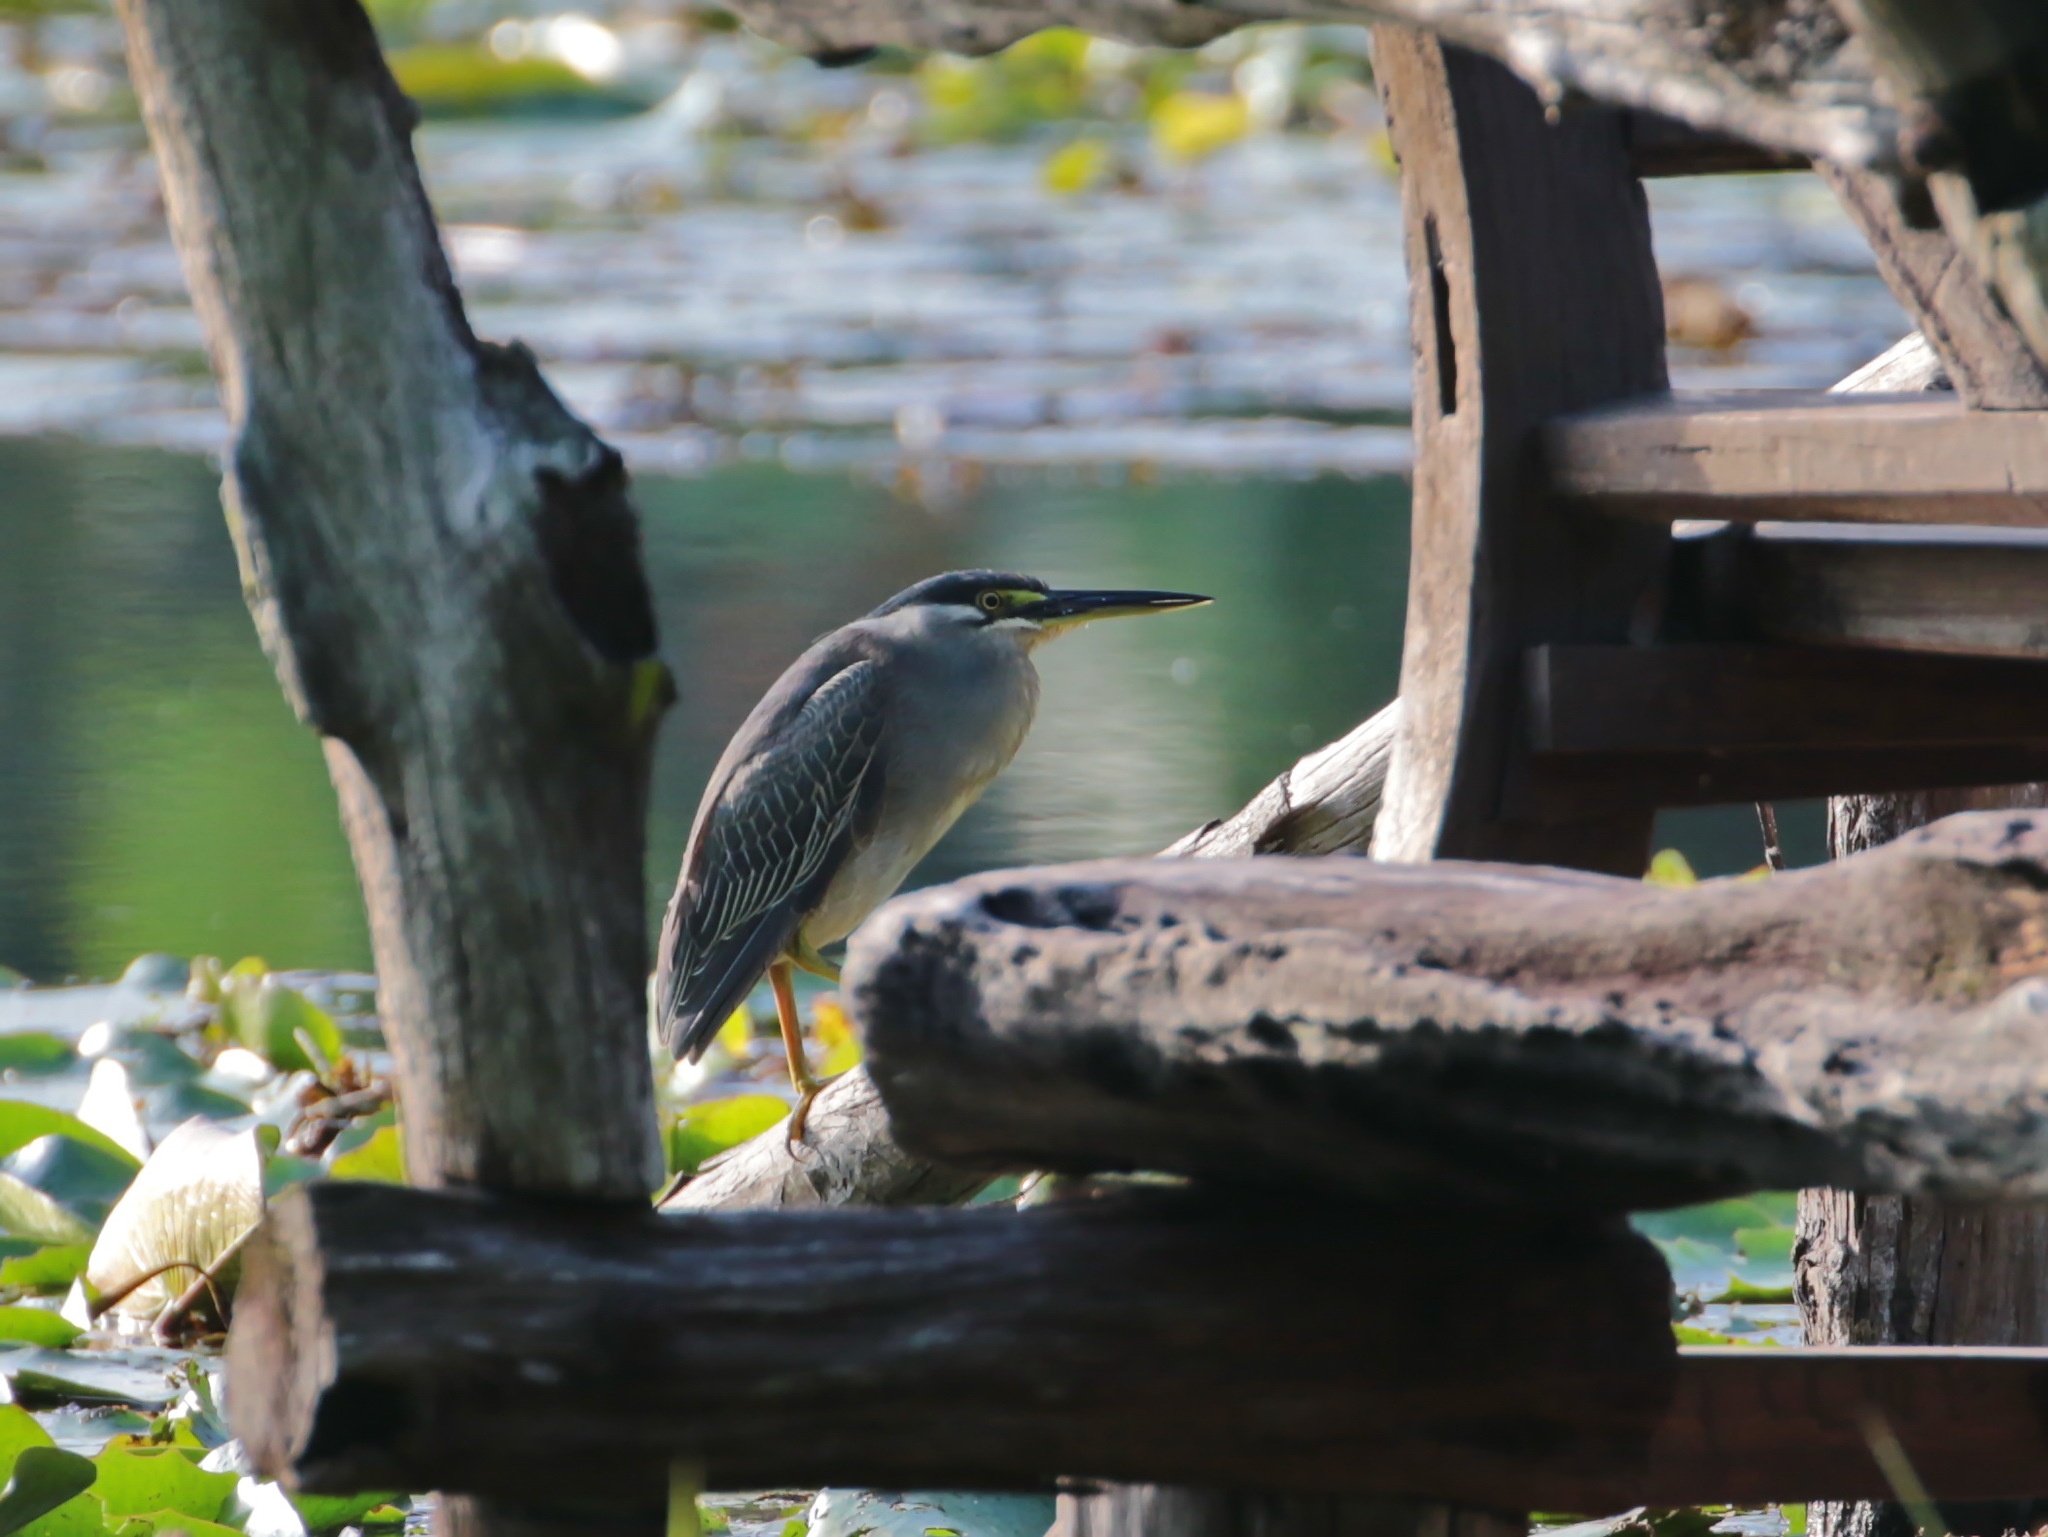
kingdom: Animalia
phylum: Chordata
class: Aves
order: Pelecaniformes
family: Ardeidae
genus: Butorides
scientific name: Butorides striata
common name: Striated heron
